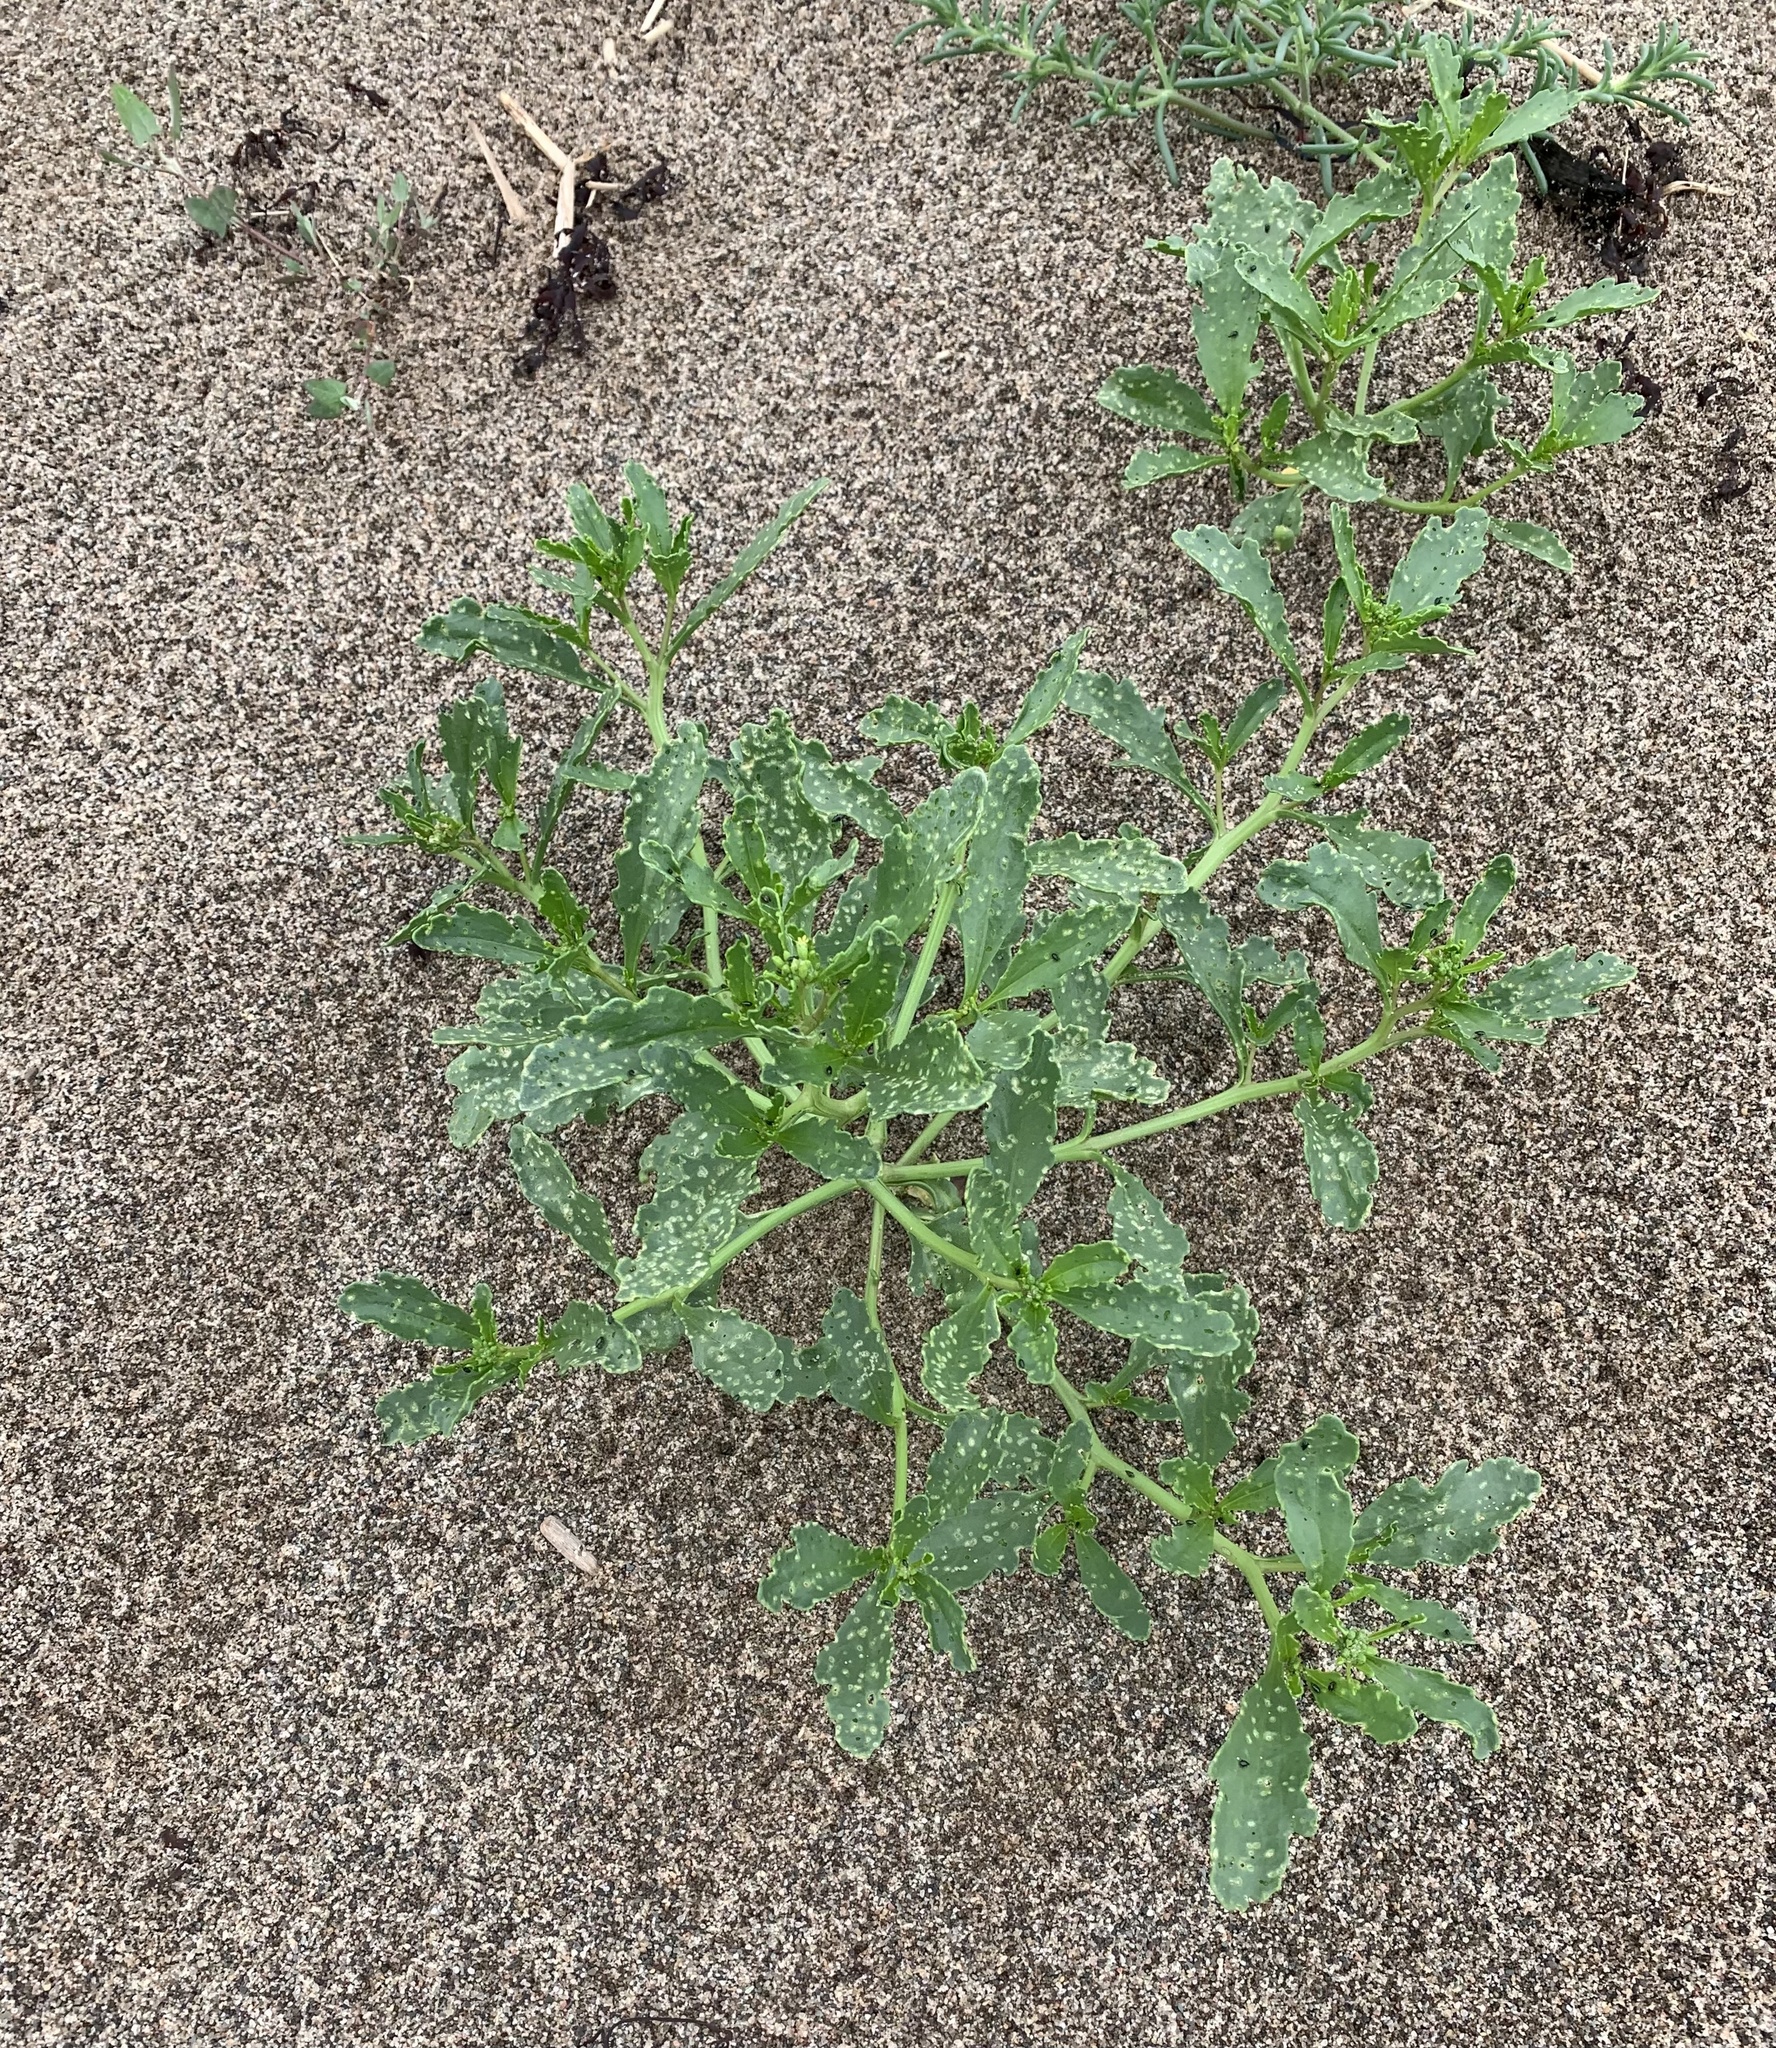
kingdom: Plantae
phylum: Tracheophyta
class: Magnoliopsida
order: Brassicales
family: Brassicaceae
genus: Cakile
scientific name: Cakile edentula
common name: American sea rocket
